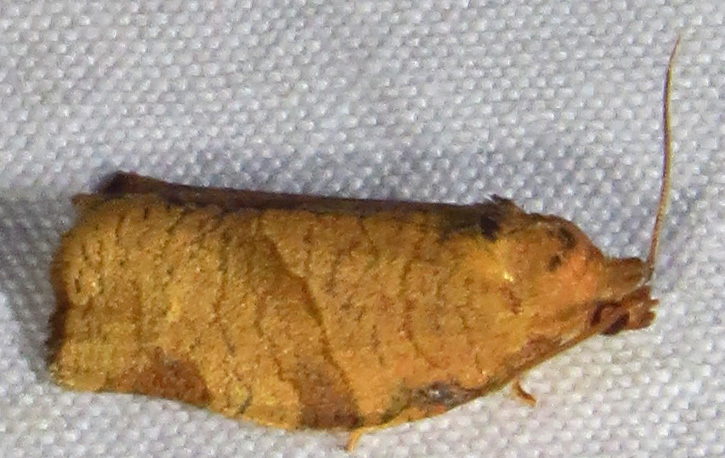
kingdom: Animalia
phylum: Arthropoda
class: Insecta
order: Lepidoptera
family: Tortricidae
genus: Choristoneura
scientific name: Choristoneura rosaceana
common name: Oblique-banded leafroller moth
